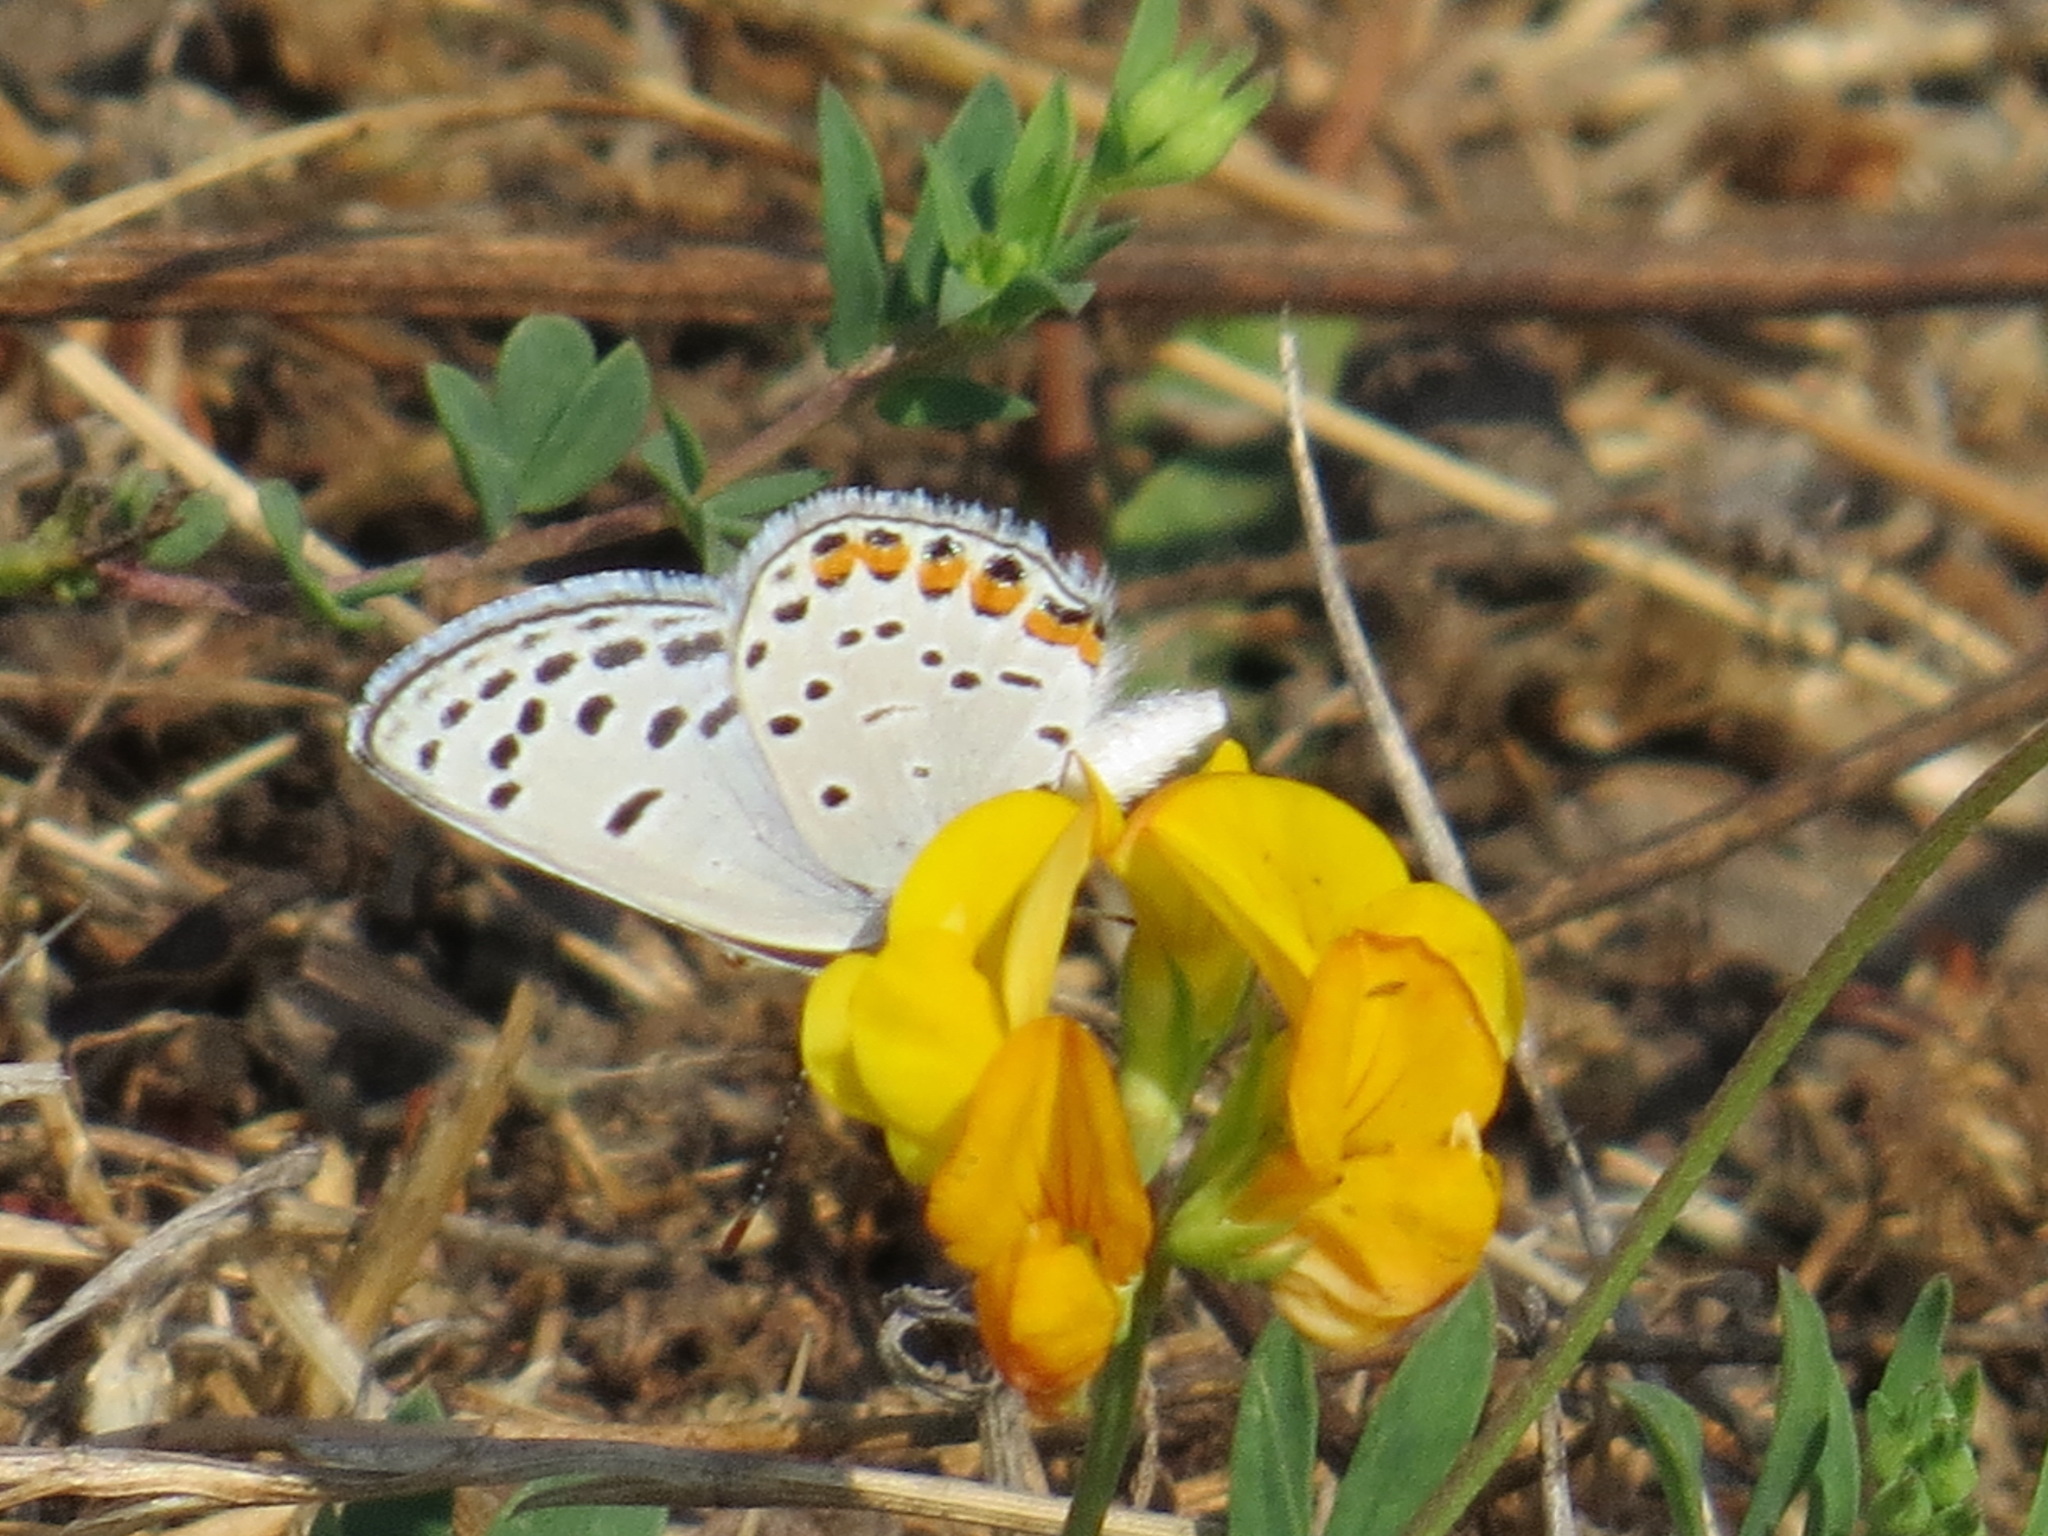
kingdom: Animalia
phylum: Arthropoda
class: Insecta
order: Lepidoptera
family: Lycaenidae
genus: Icaricia
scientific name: Icaricia acmon
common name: Acmon blue
